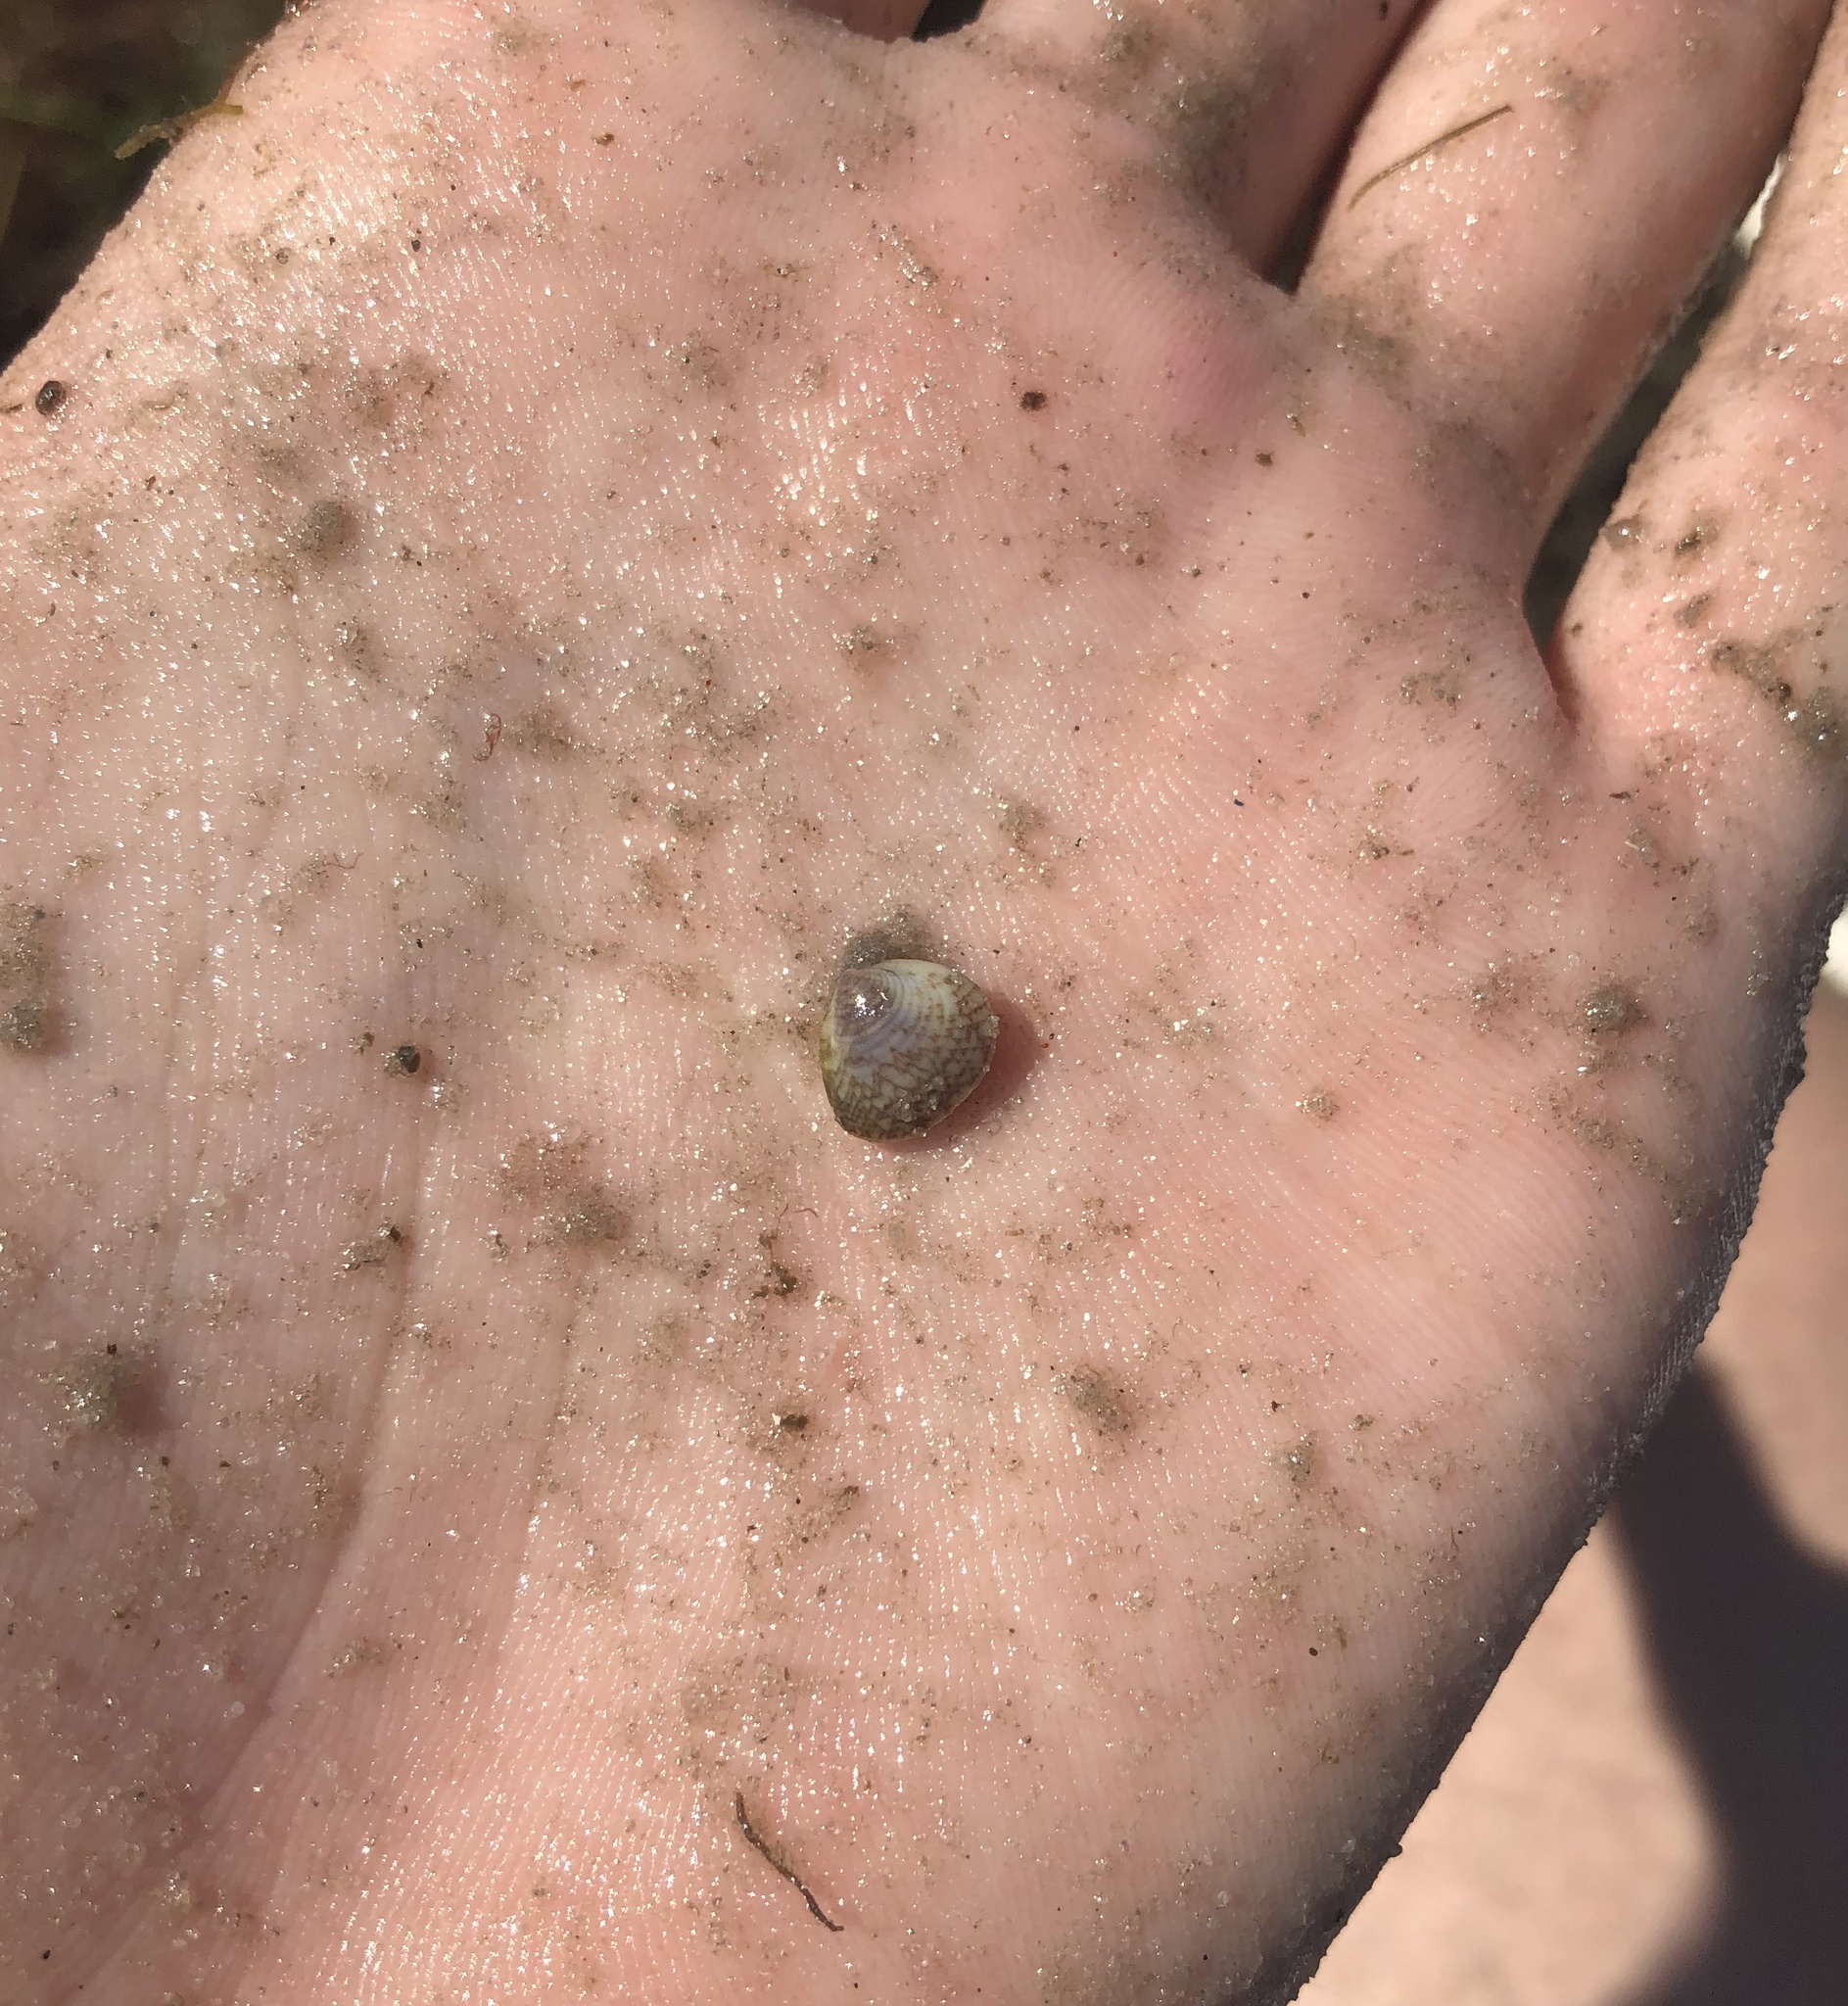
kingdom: Animalia
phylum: Mollusca
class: Bivalvia
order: Cardiida
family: Cardiidae
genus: Laevicardium
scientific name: Laevicardium mortoni
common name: Morton eggcockle
